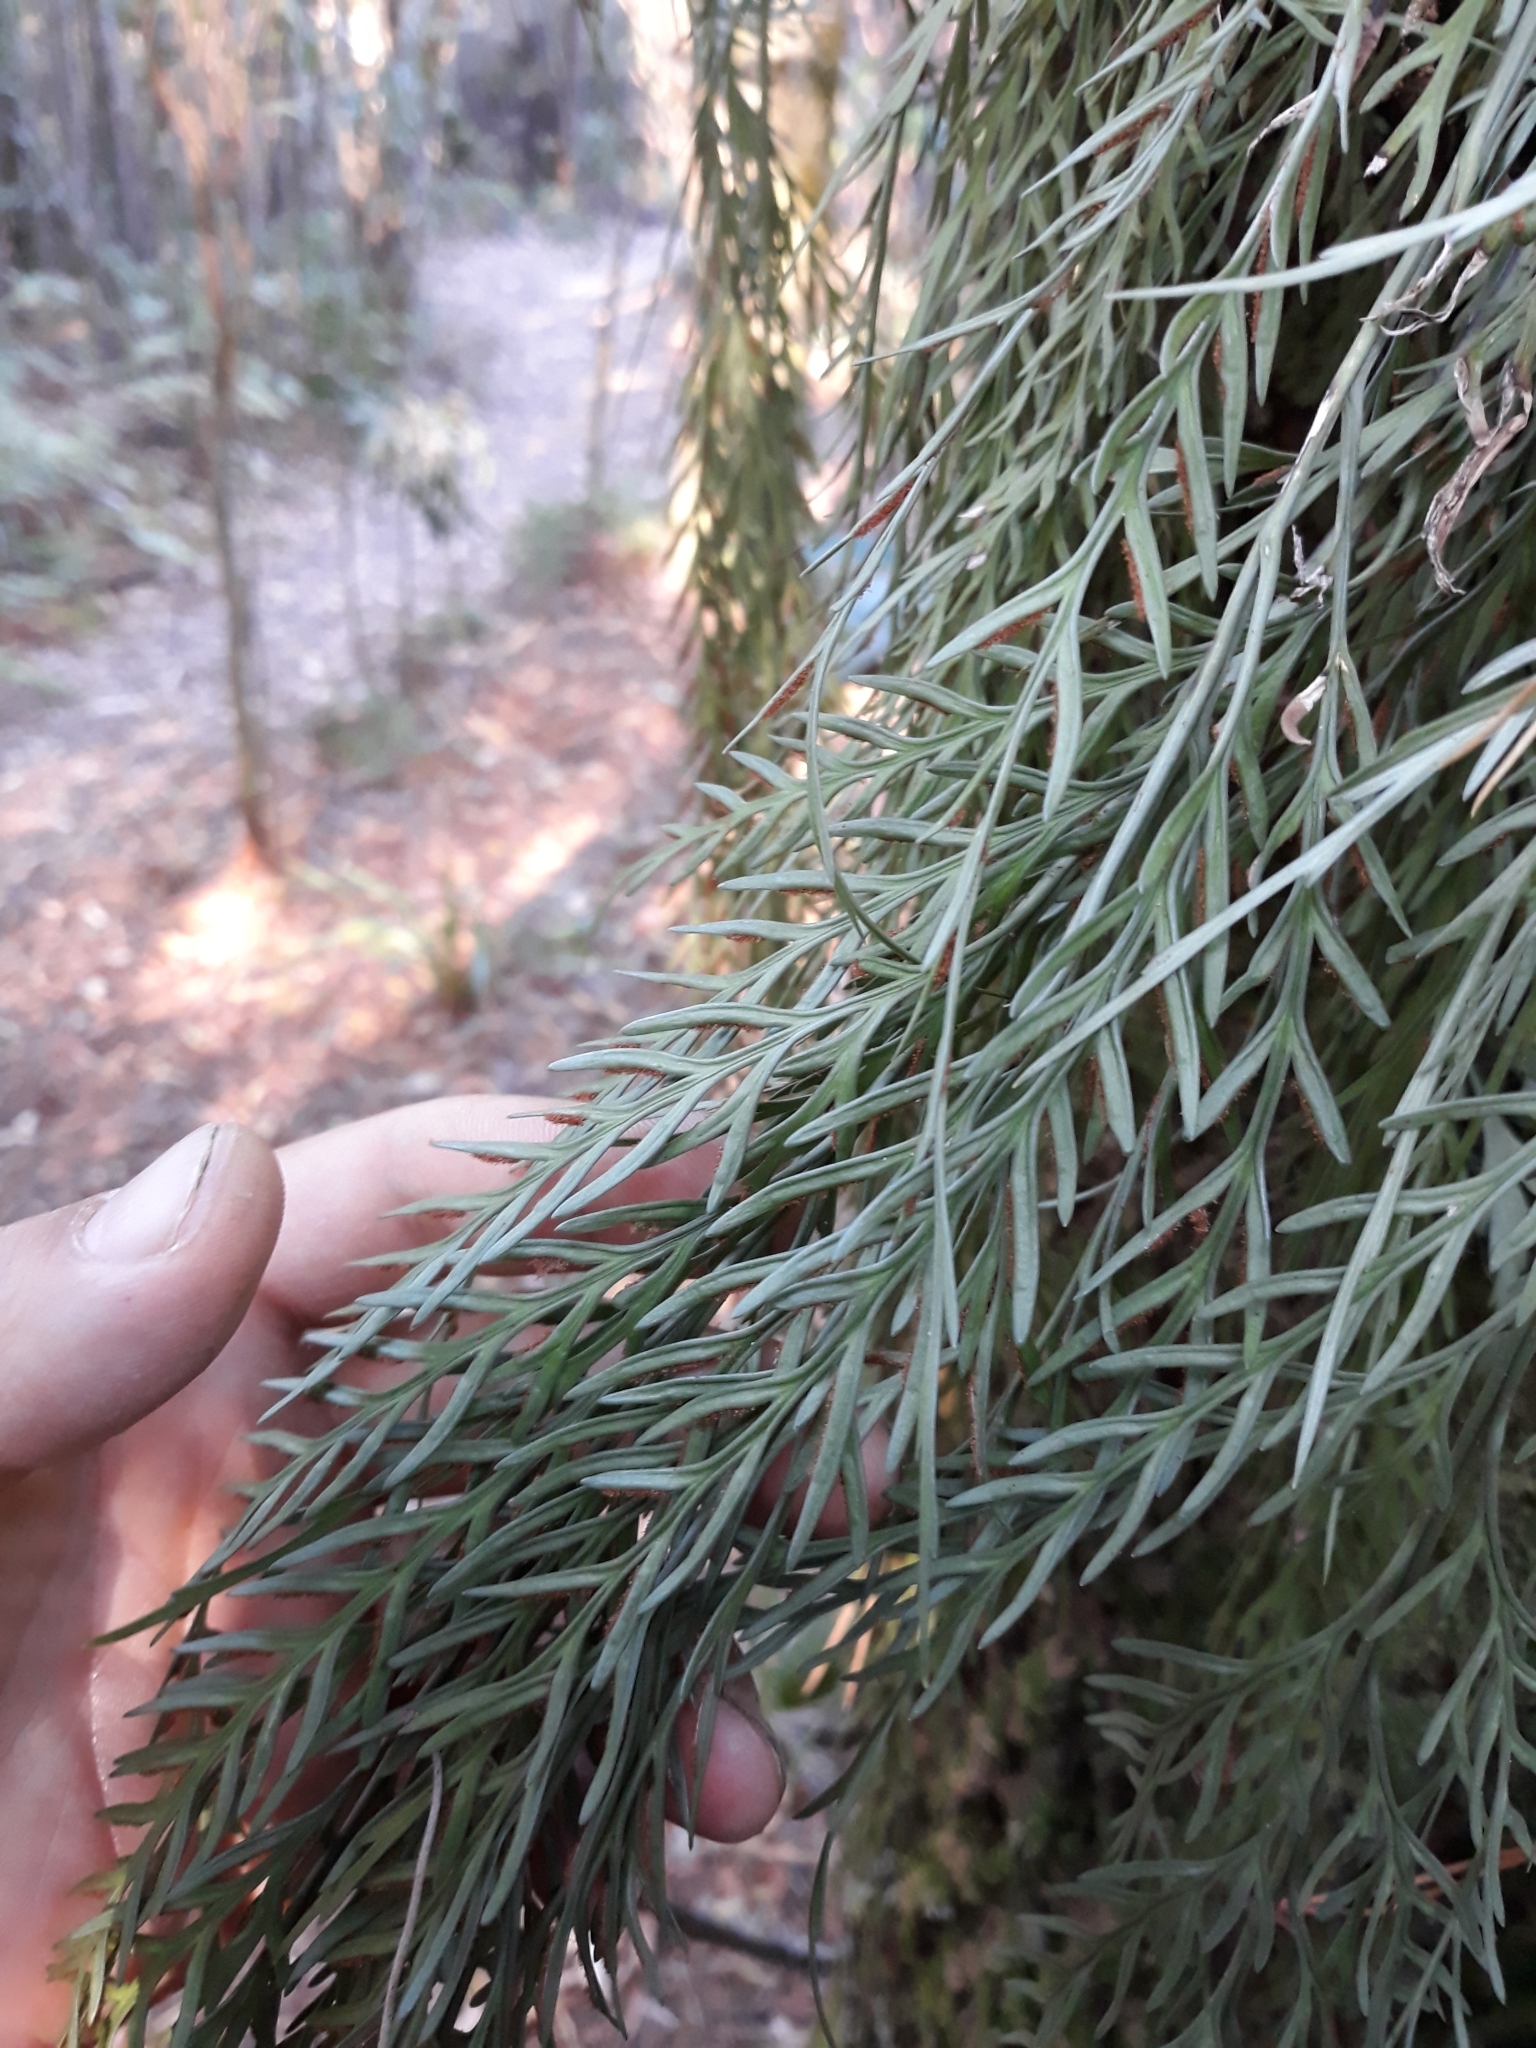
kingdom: Plantae
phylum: Tracheophyta
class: Polypodiopsida
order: Polypodiales
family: Aspleniaceae
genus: Asplenium
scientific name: Asplenium flaccidum
